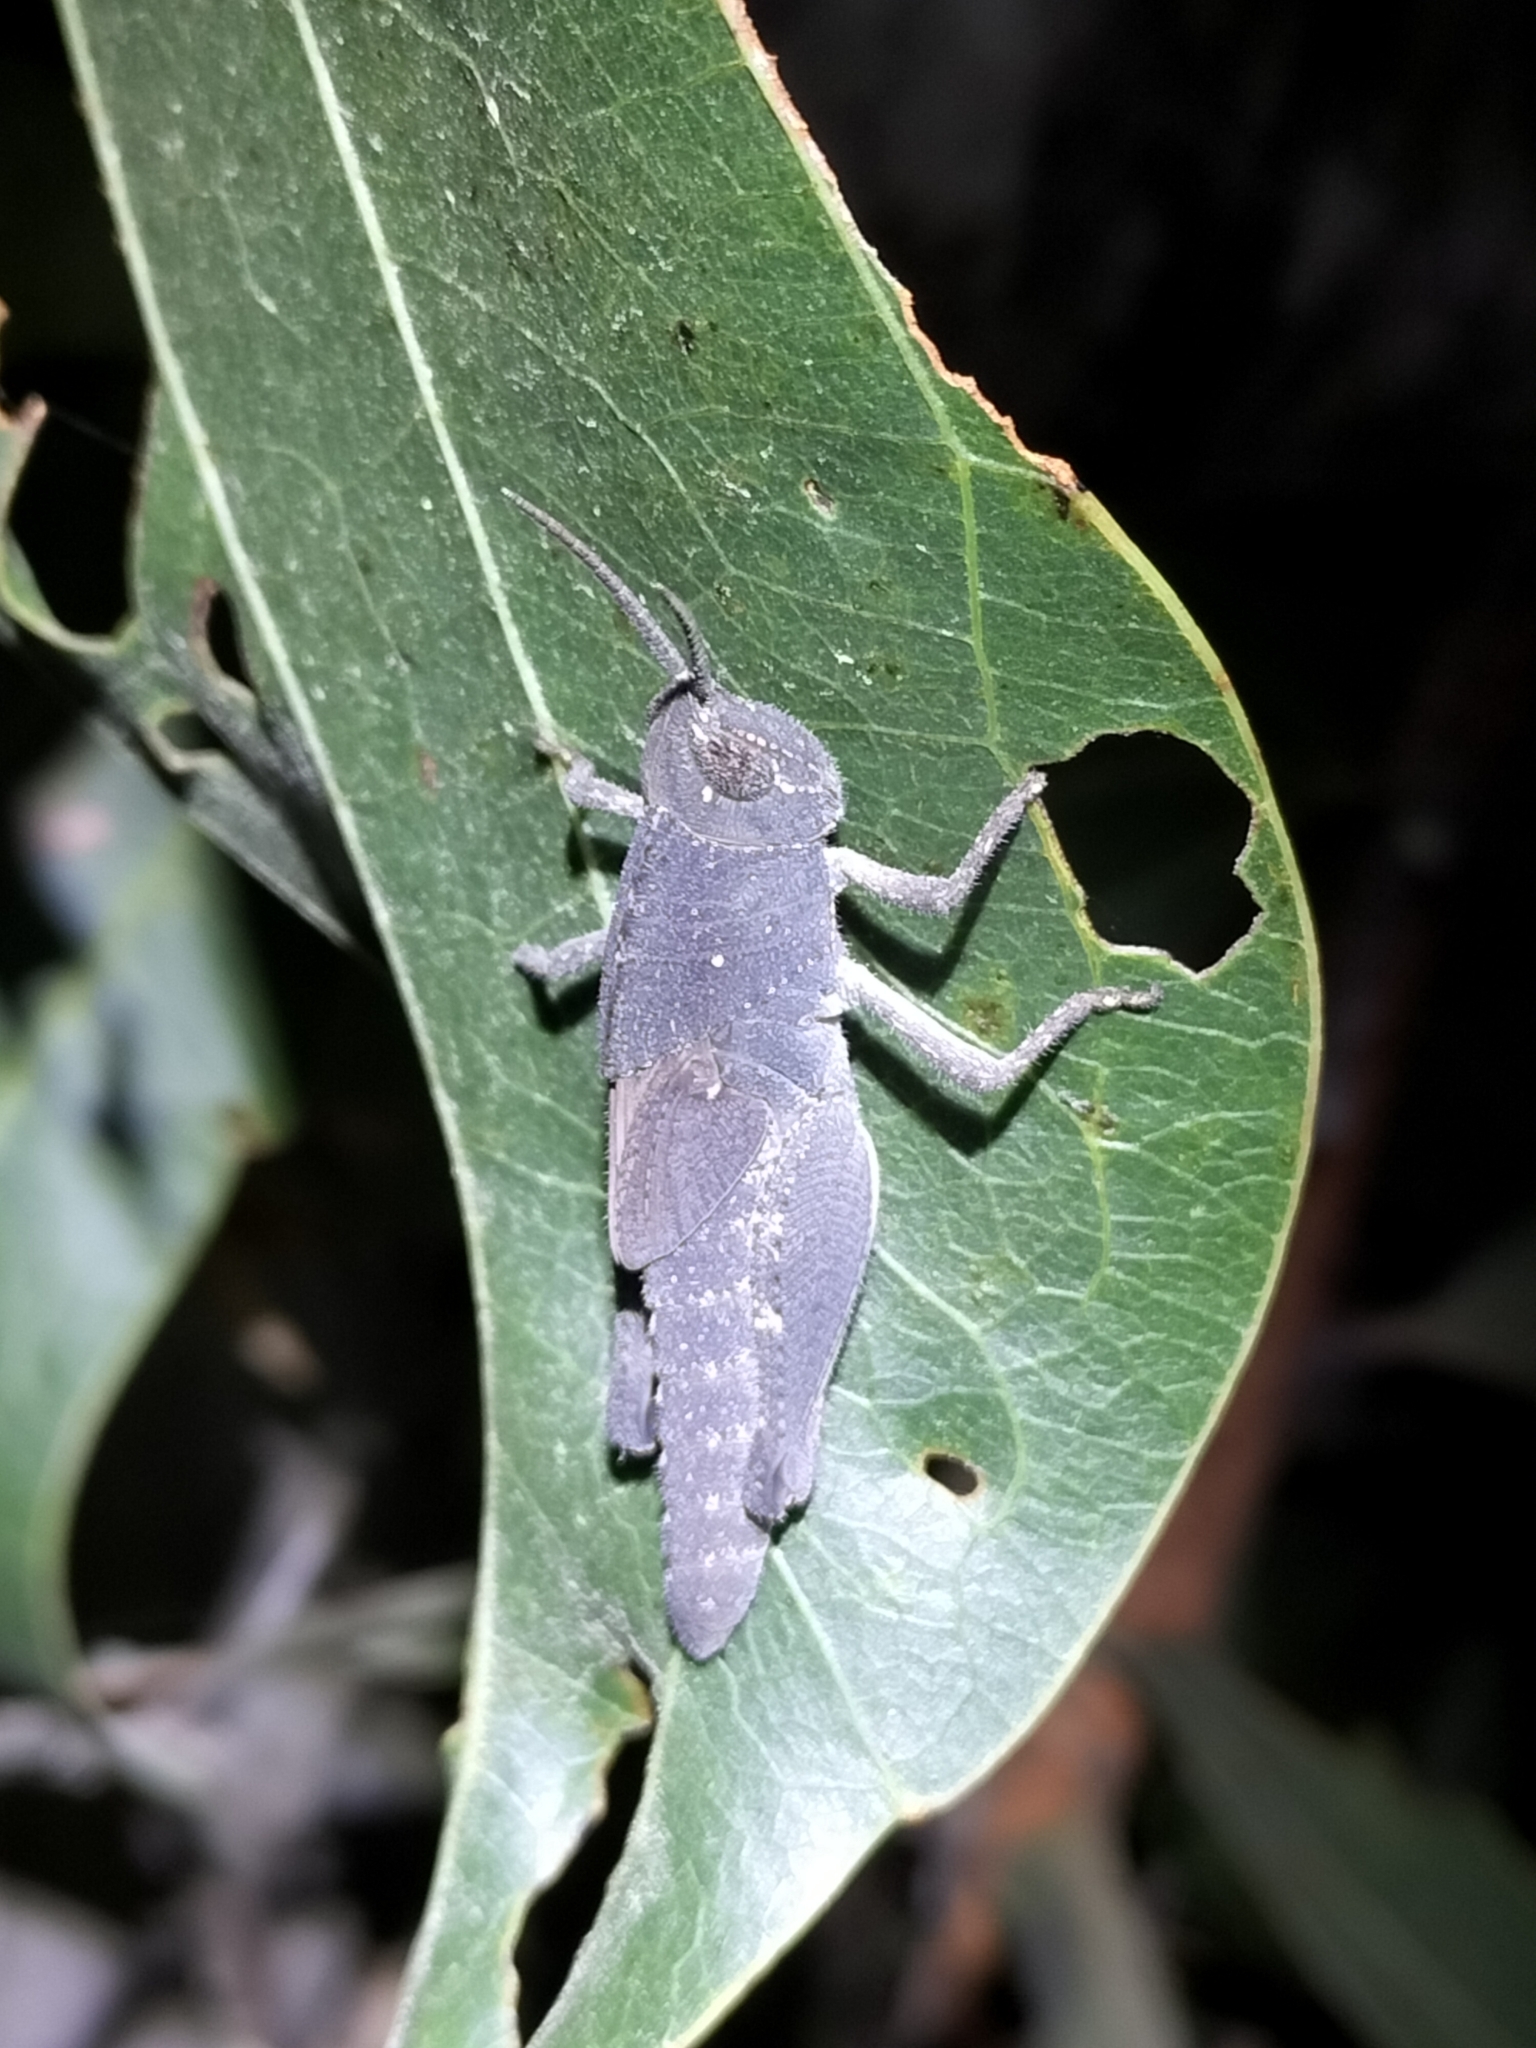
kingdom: Animalia
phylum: Arthropoda
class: Insecta
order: Orthoptera
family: Acrididae
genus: Goniaea
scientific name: Goniaea vocans
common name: Slender gumleaf grasshopper
